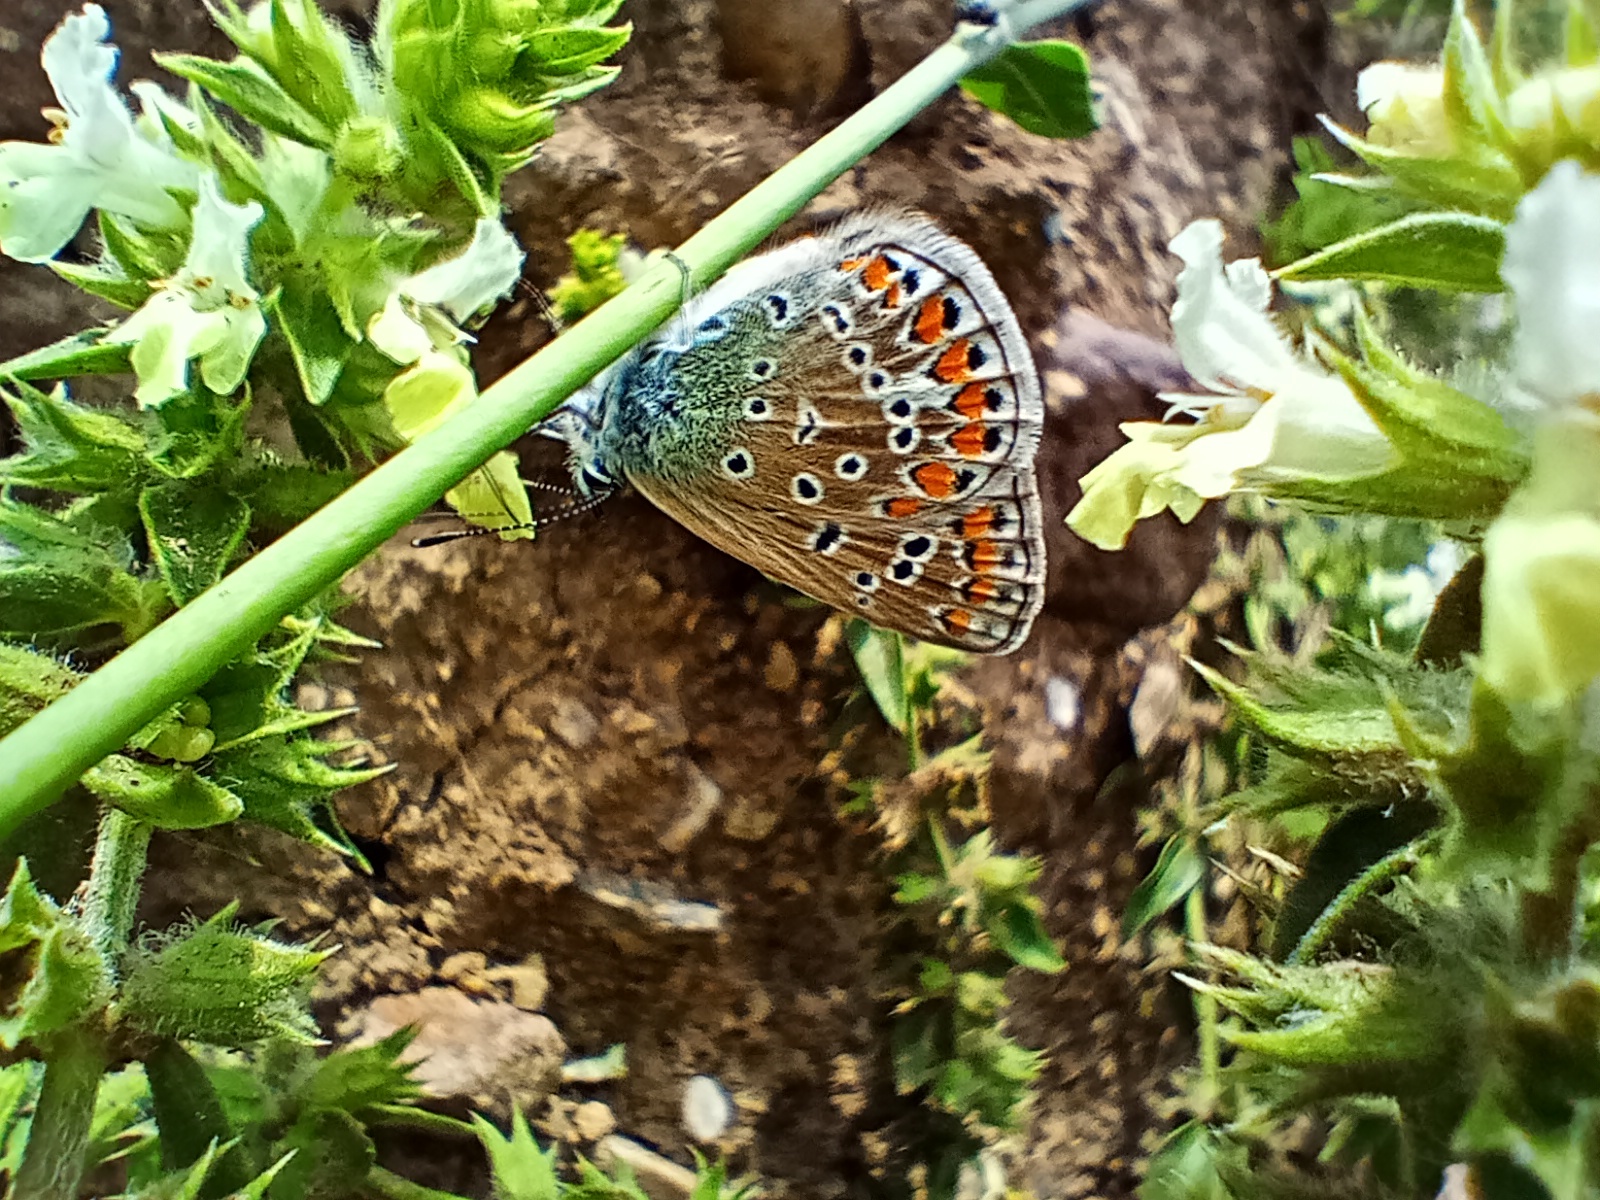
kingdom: Animalia
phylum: Arthropoda
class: Insecta
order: Lepidoptera
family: Lycaenidae
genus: Polyommatus
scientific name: Polyommatus icarus
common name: Common blue
